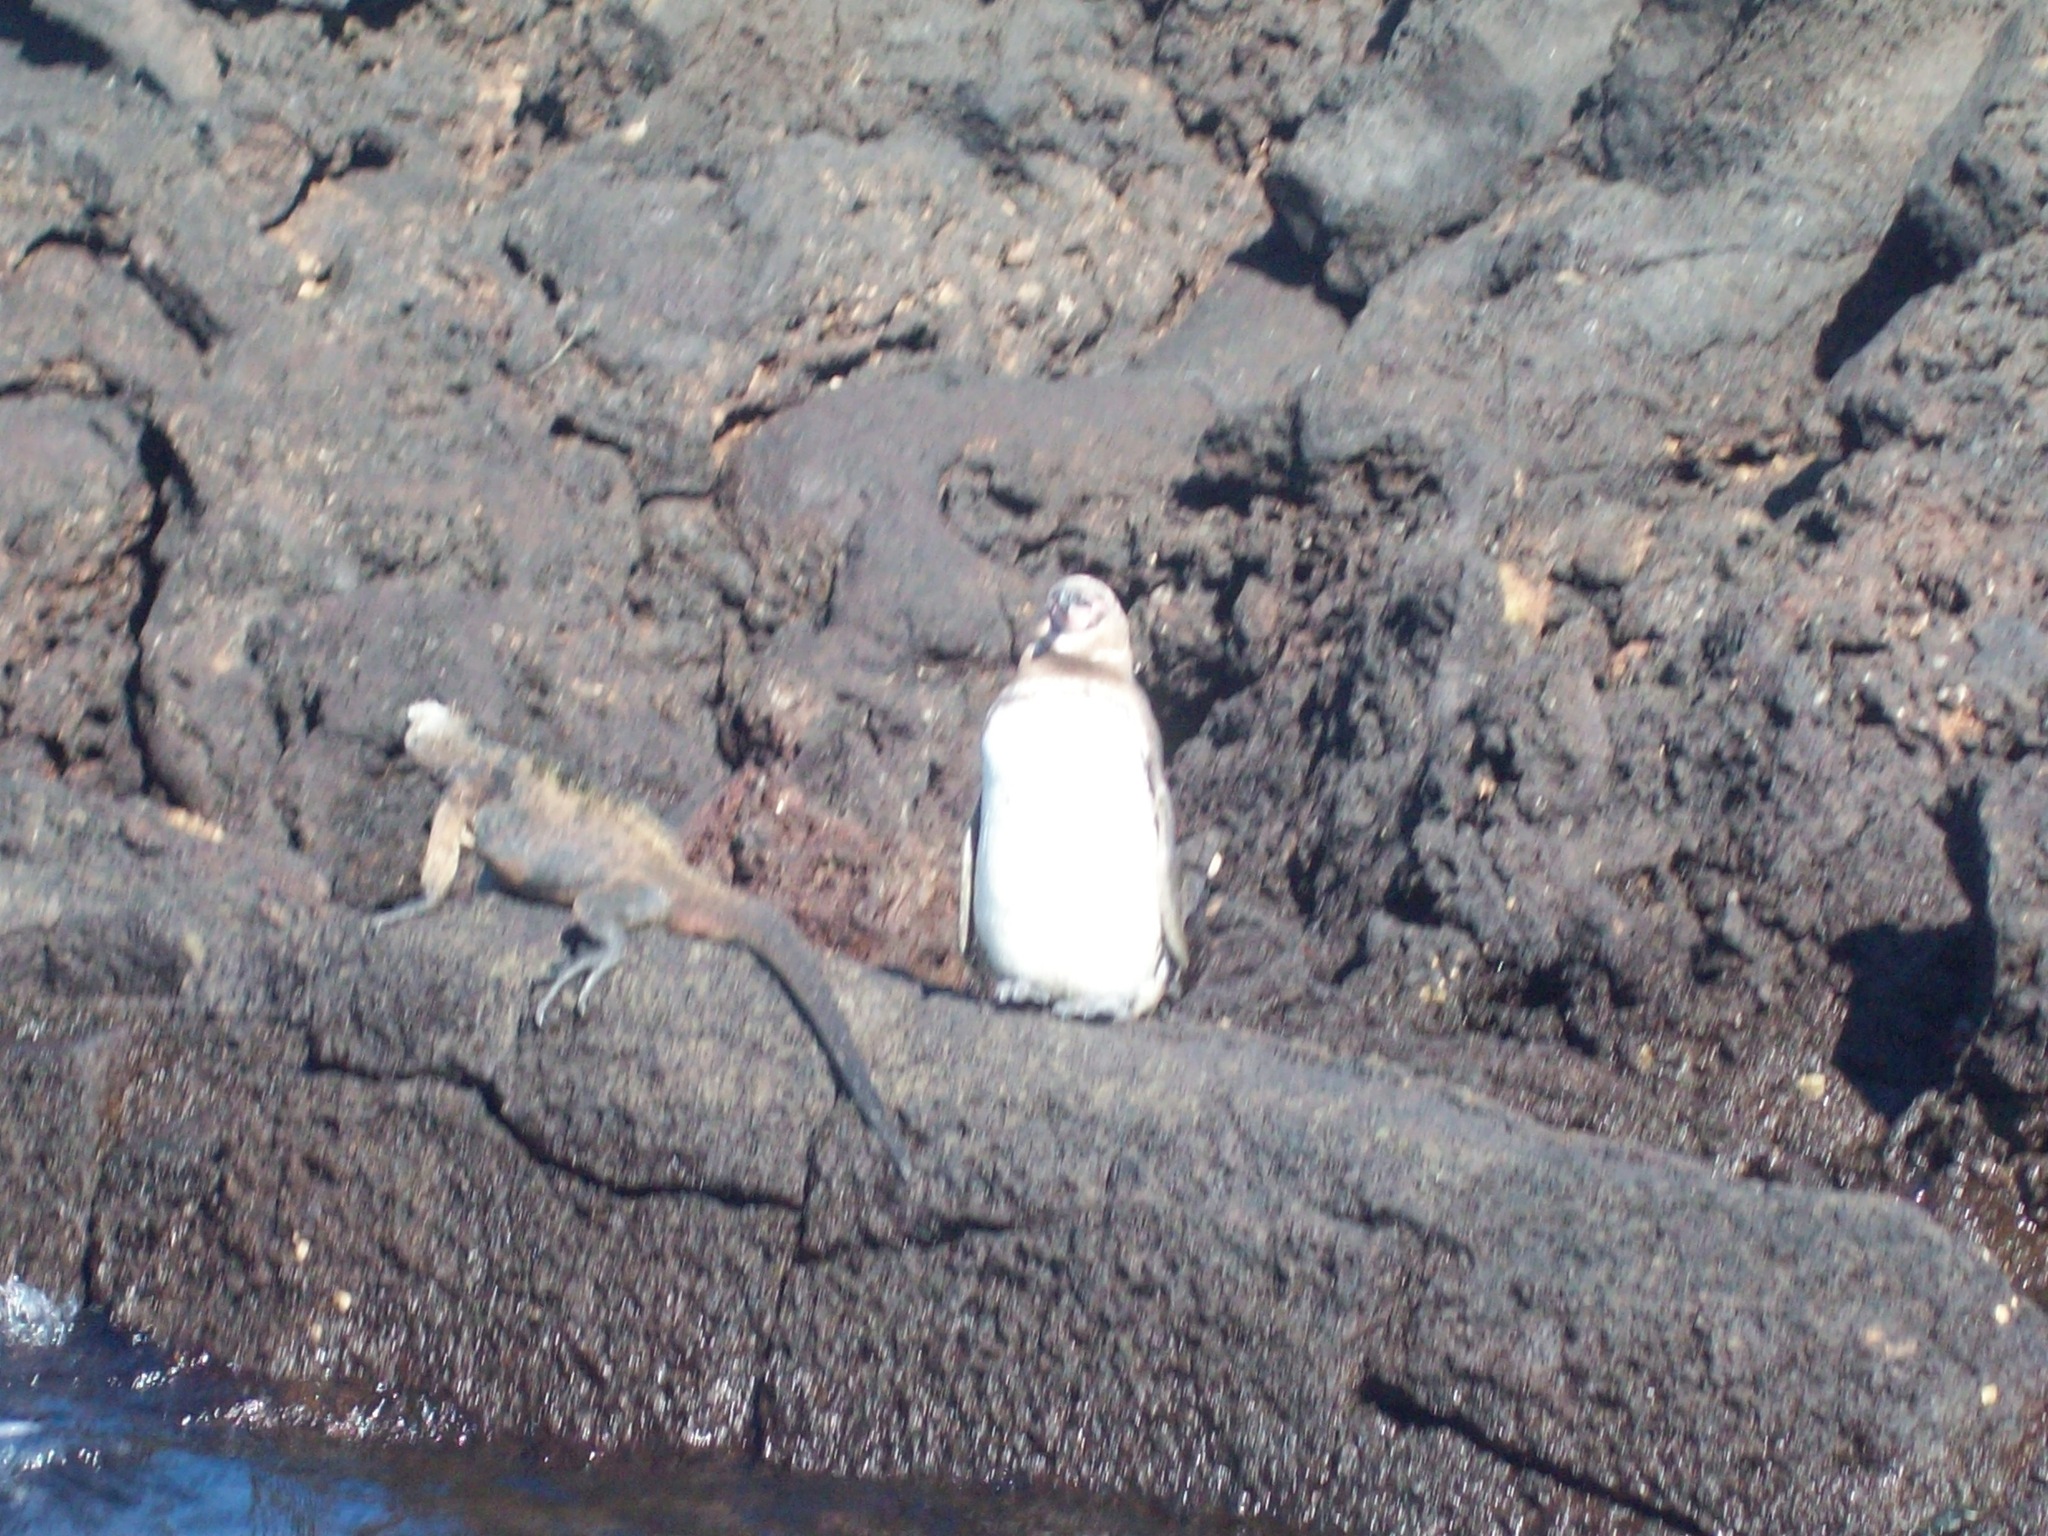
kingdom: Animalia
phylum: Chordata
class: Aves
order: Sphenisciformes
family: Spheniscidae
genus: Spheniscus
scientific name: Spheniscus mendiculus
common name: Galapagos penguin
